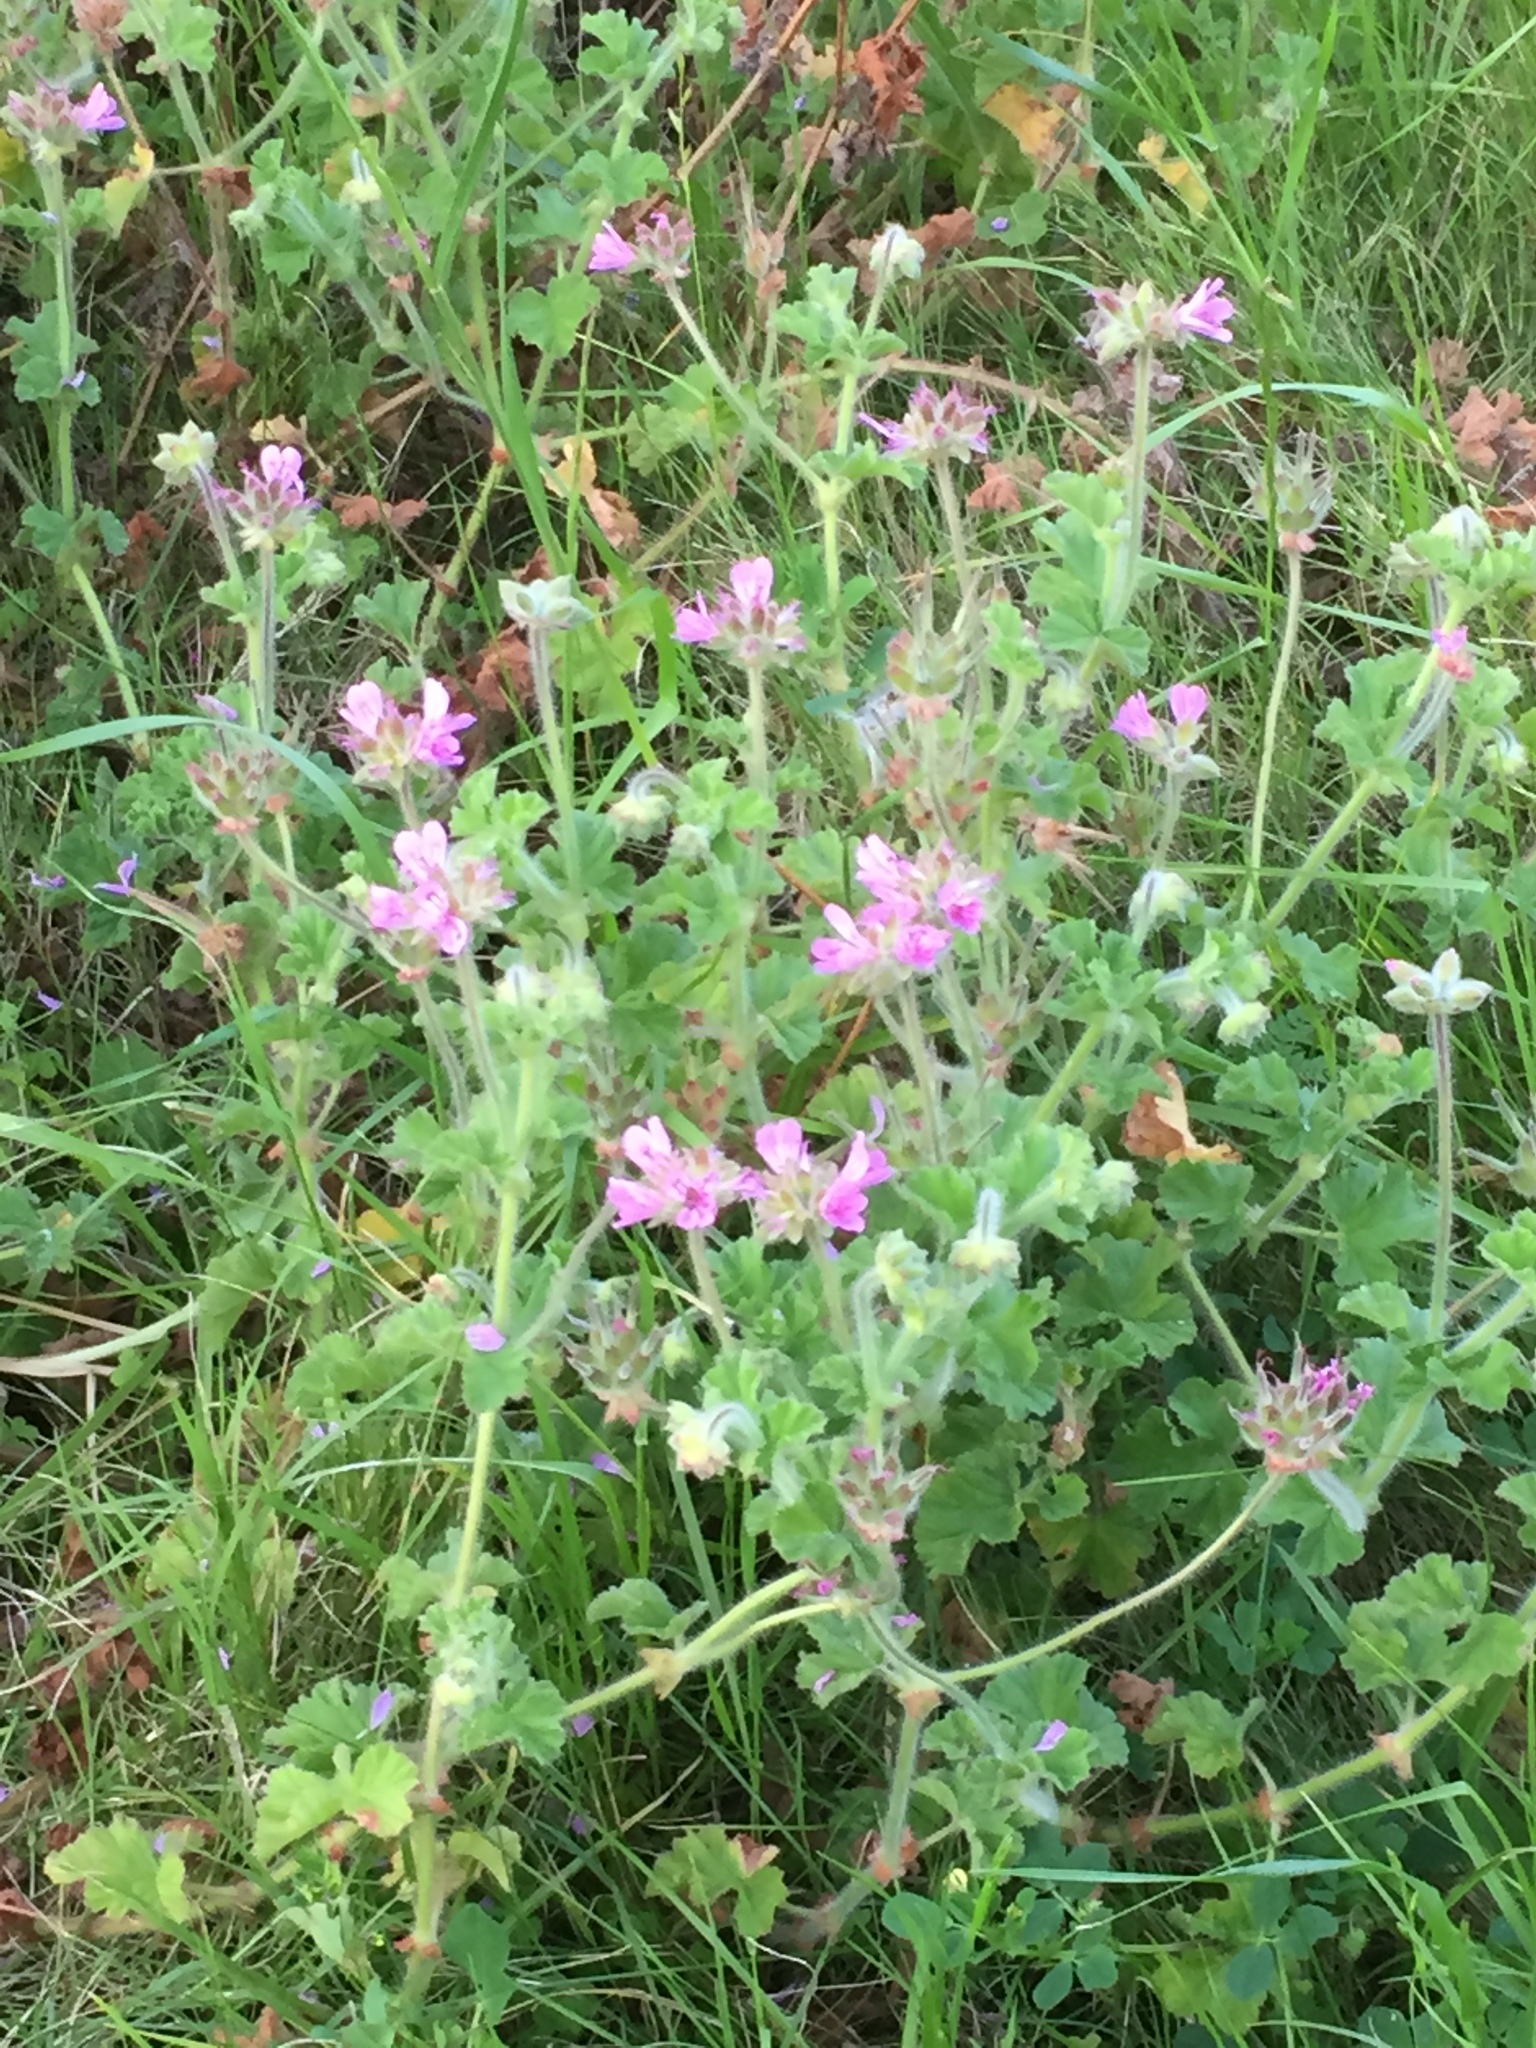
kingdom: Plantae
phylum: Tracheophyta
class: Magnoliopsida
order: Geraniales
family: Geraniaceae
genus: Pelargonium
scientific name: Pelargonium capitatum
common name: Rose scented geranium
